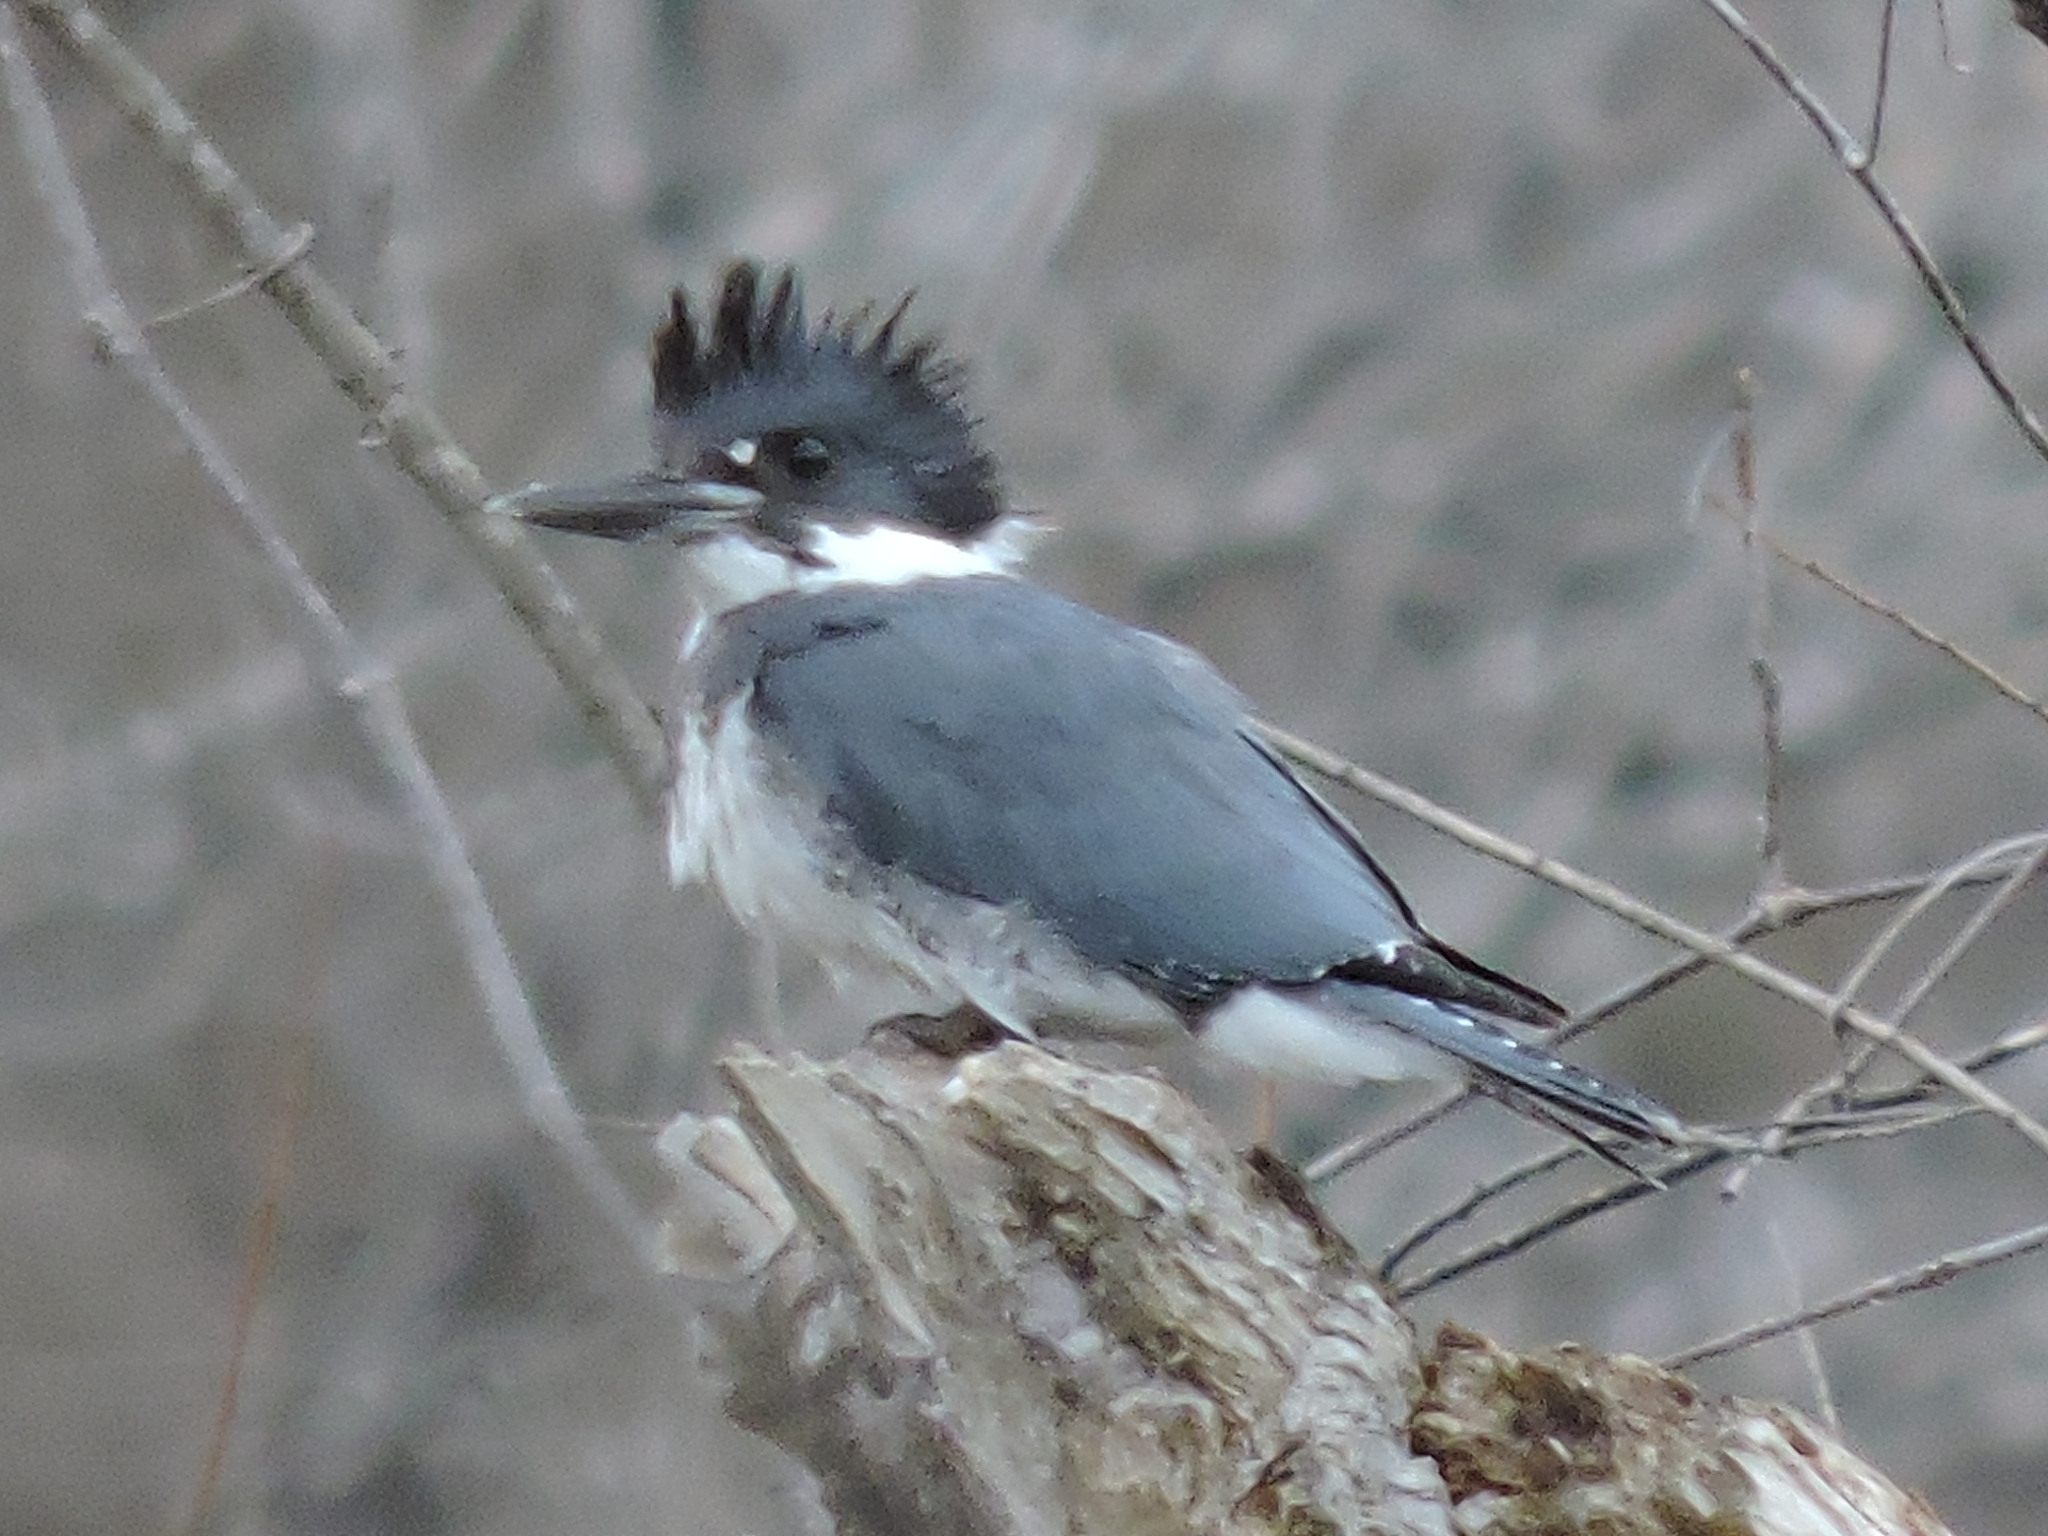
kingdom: Animalia
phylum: Chordata
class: Aves
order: Coraciiformes
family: Alcedinidae
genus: Megaceryle
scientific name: Megaceryle alcyon
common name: Belted kingfisher
